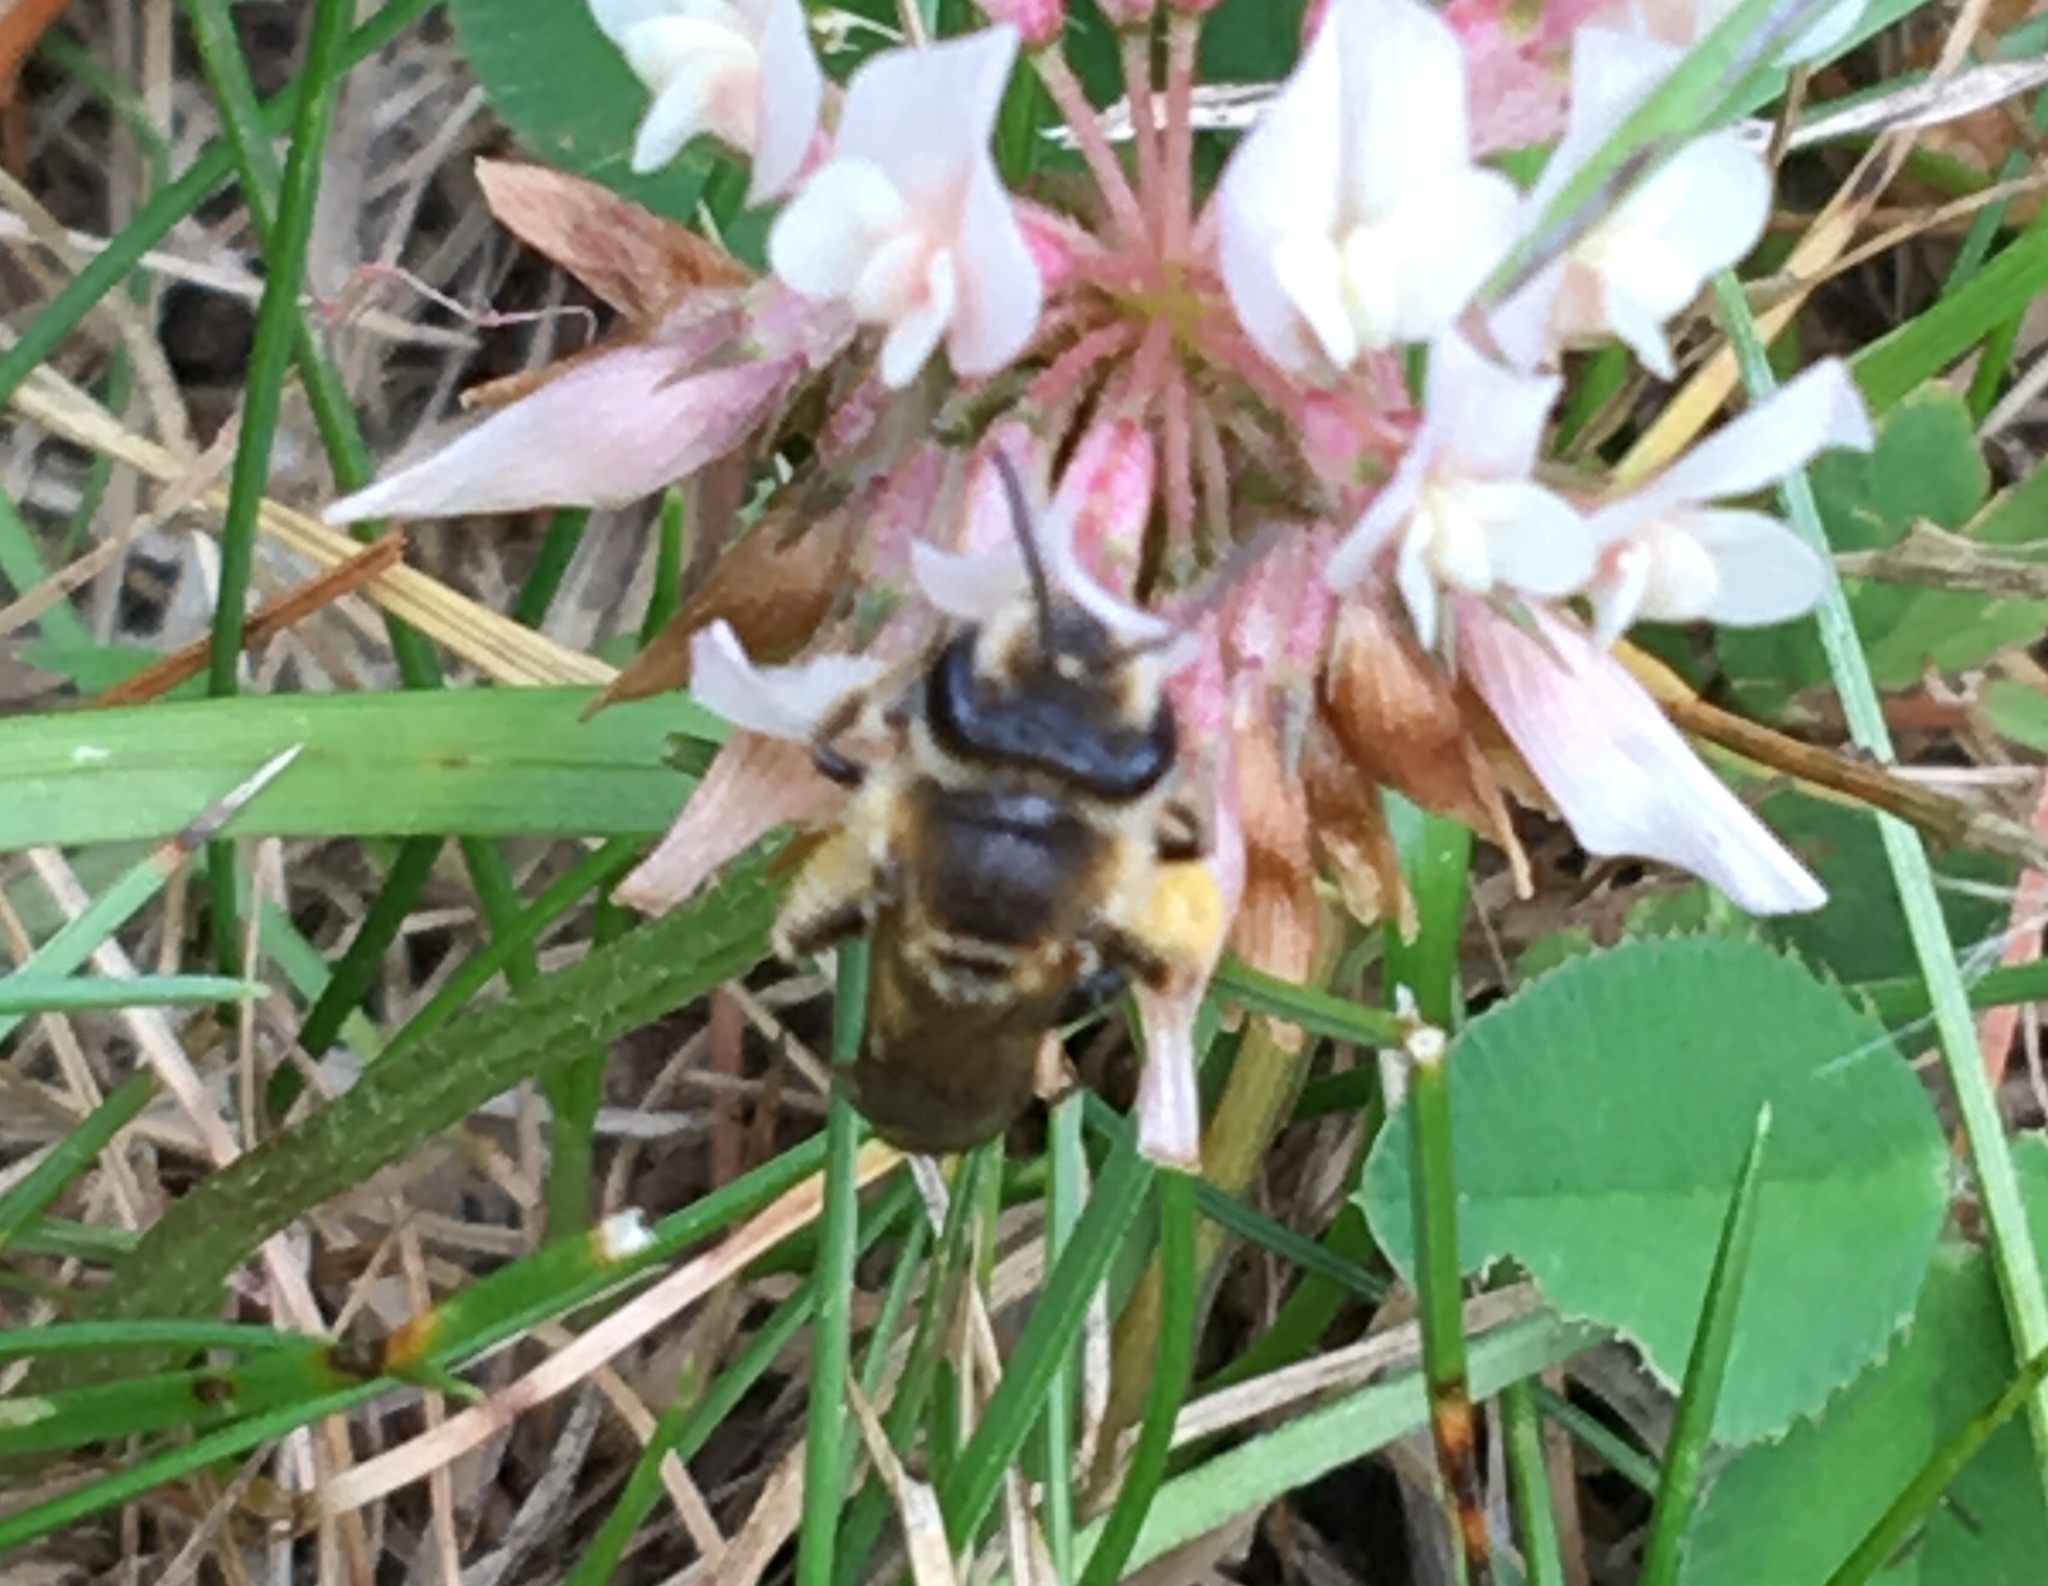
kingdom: Animalia
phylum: Arthropoda
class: Insecta
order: Hymenoptera
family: Andrenidae
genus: Andrena
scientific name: Andrena wilkella
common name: Wilke's mining bee
